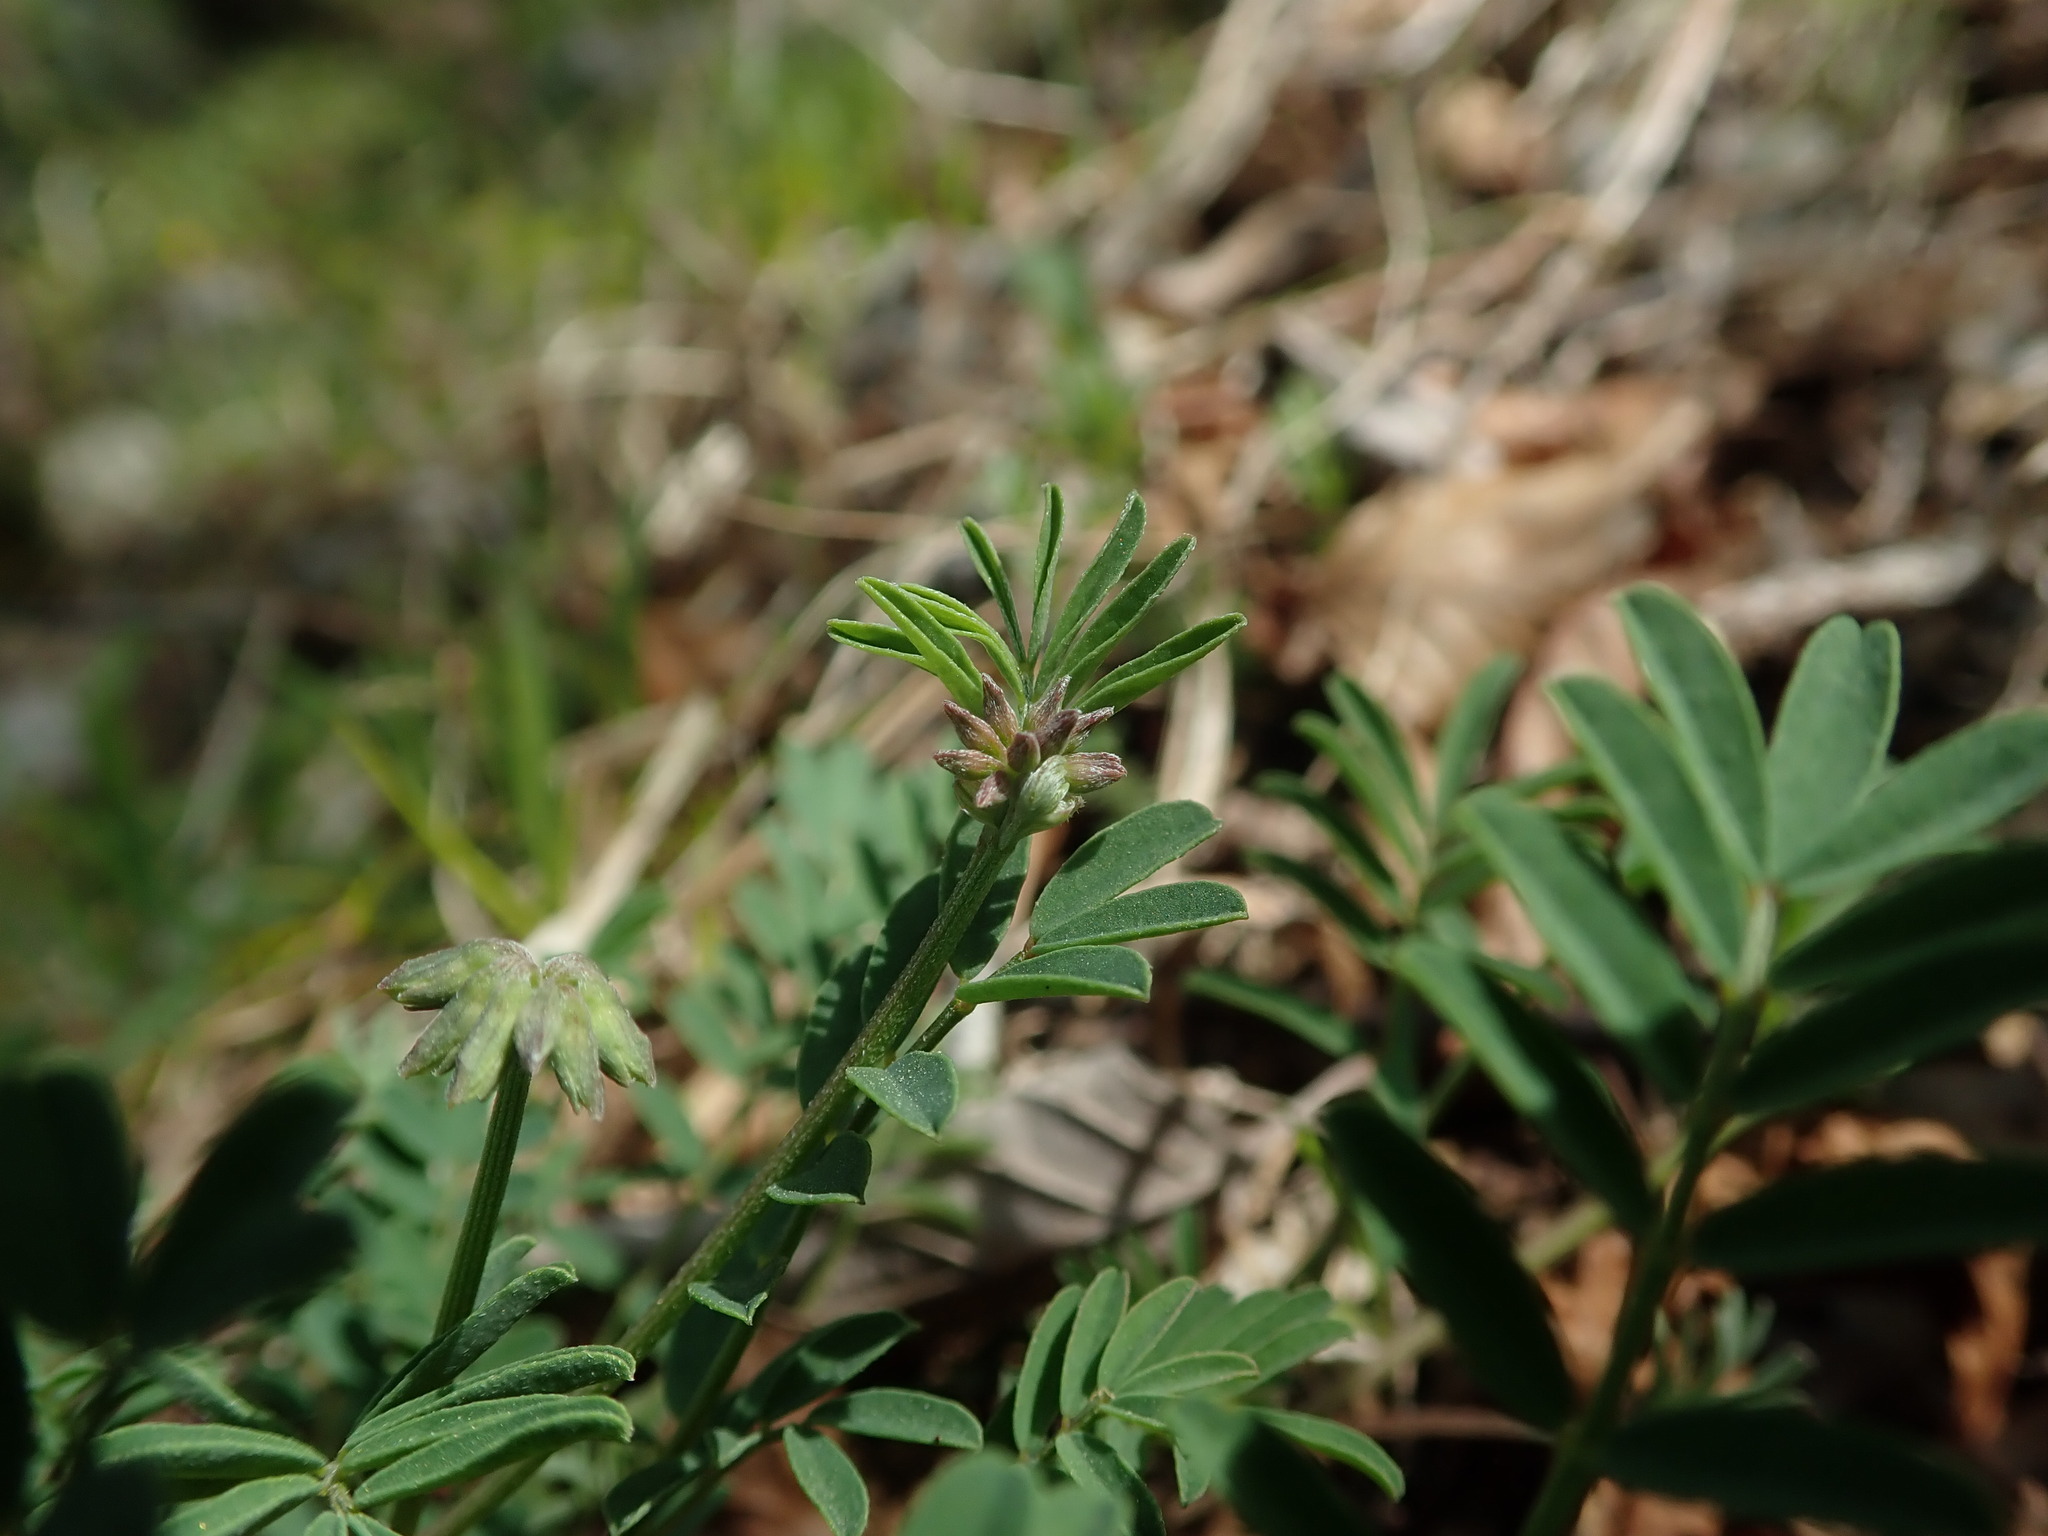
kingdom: Plantae
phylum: Tracheophyta
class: Magnoliopsida
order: Fabales
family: Fabaceae
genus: Hippocrepis
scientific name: Hippocrepis comosa
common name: Horseshoe vetch
